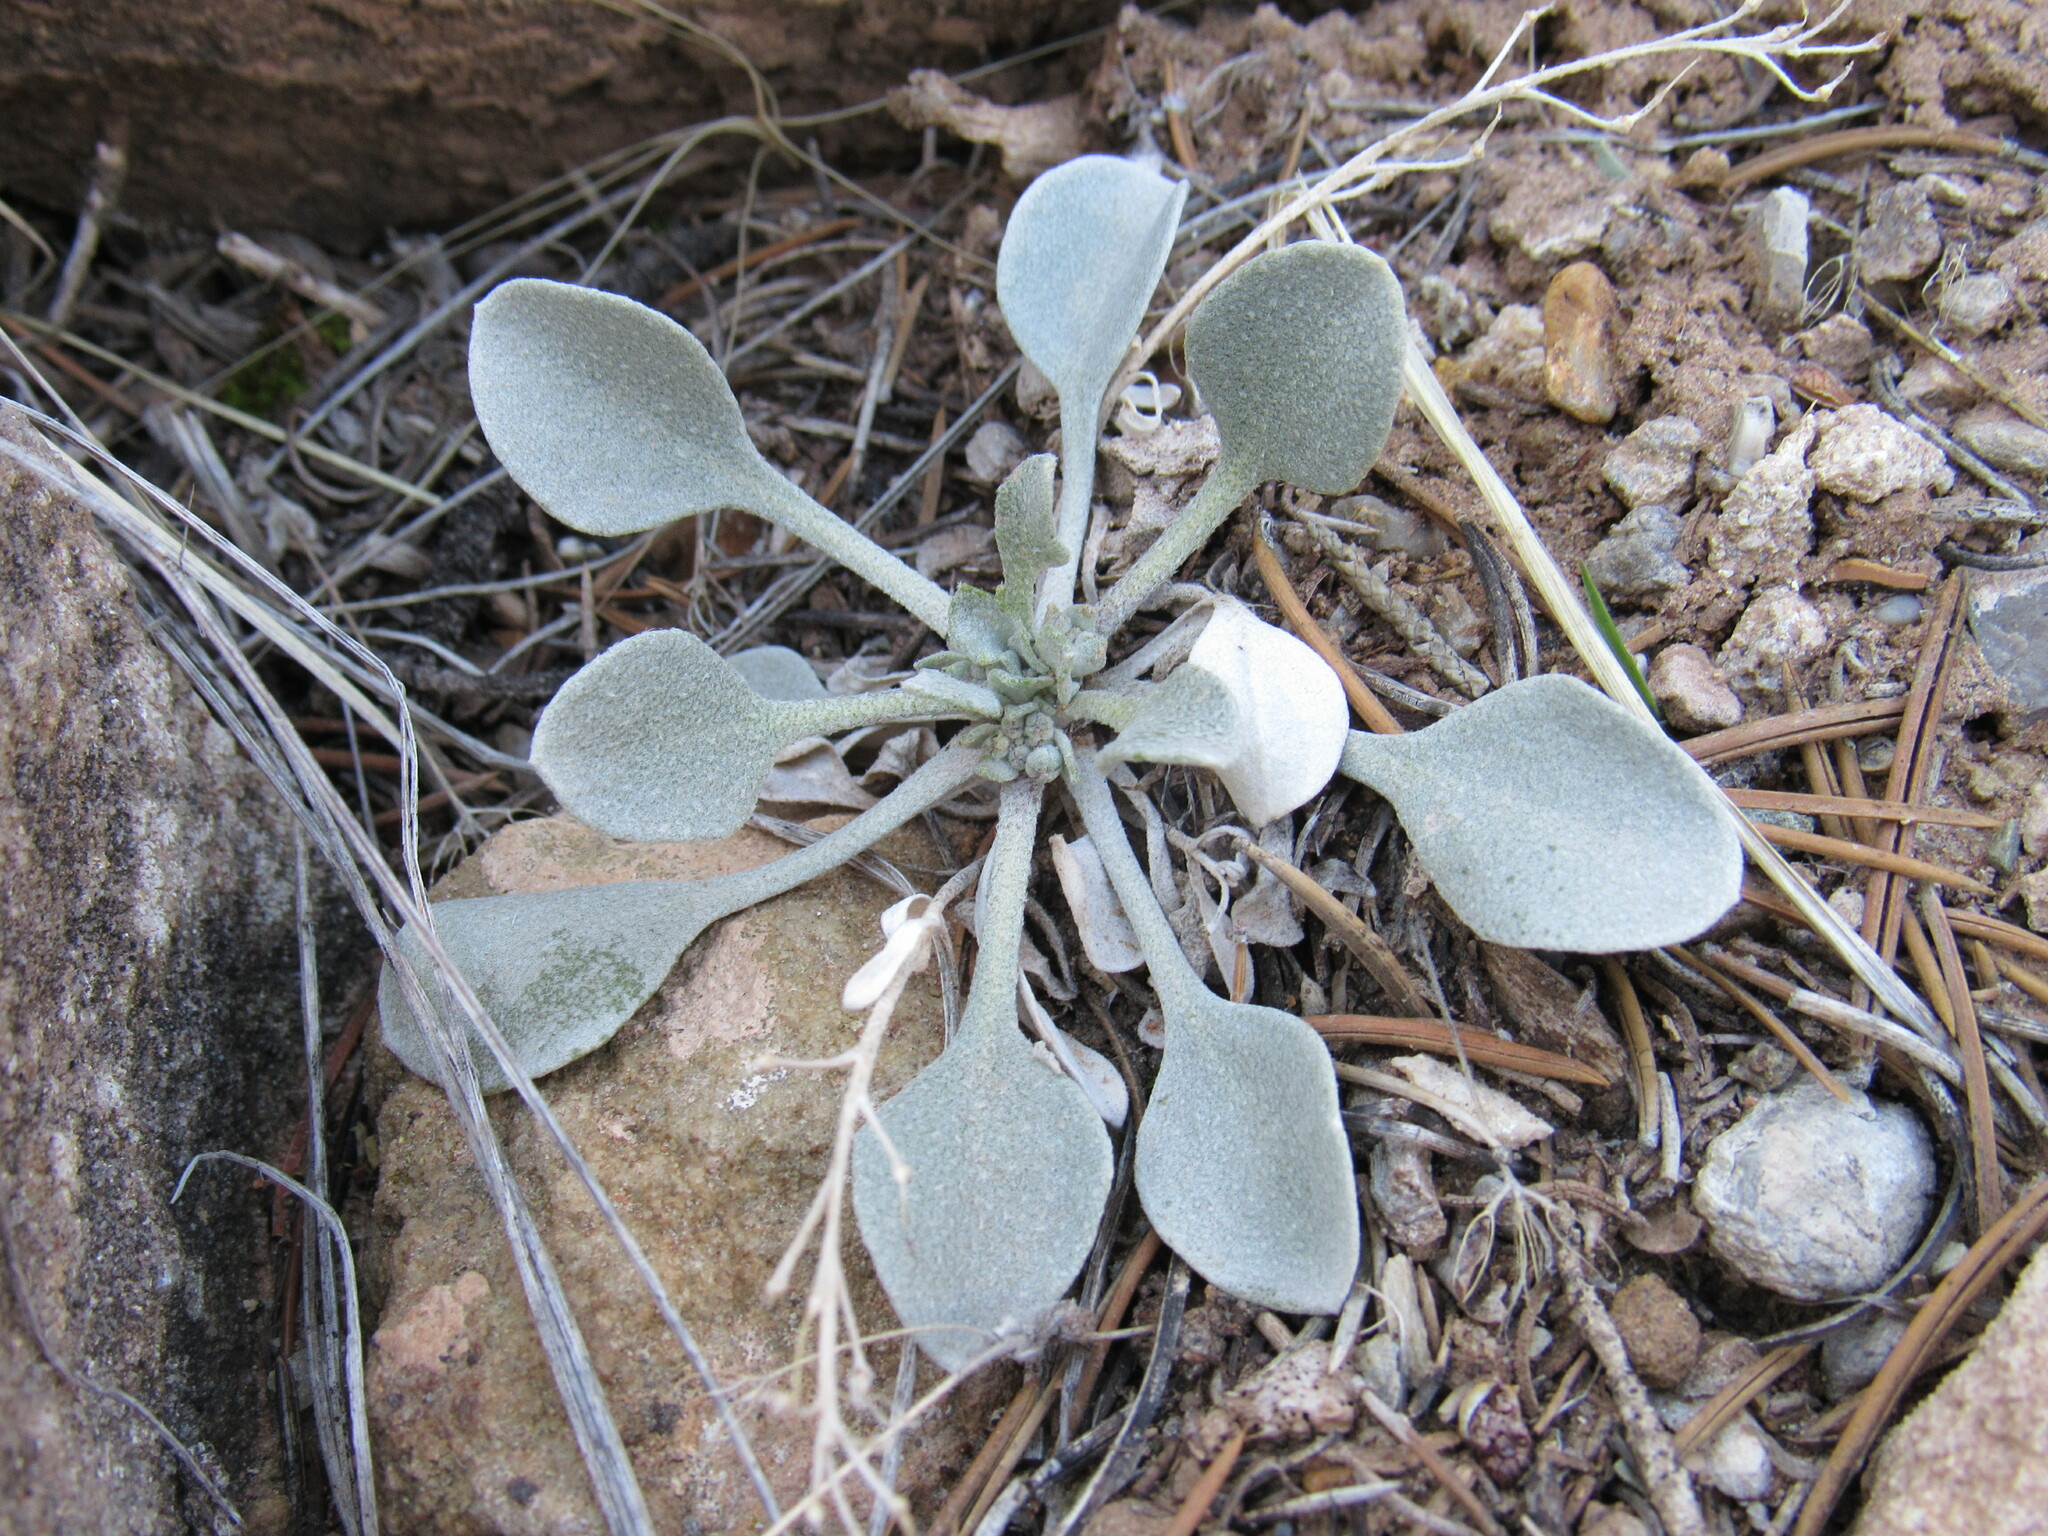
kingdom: Plantae
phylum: Tracheophyta
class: Magnoliopsida
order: Brassicales
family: Brassicaceae
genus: Physaria
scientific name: Physaria acutifolia
